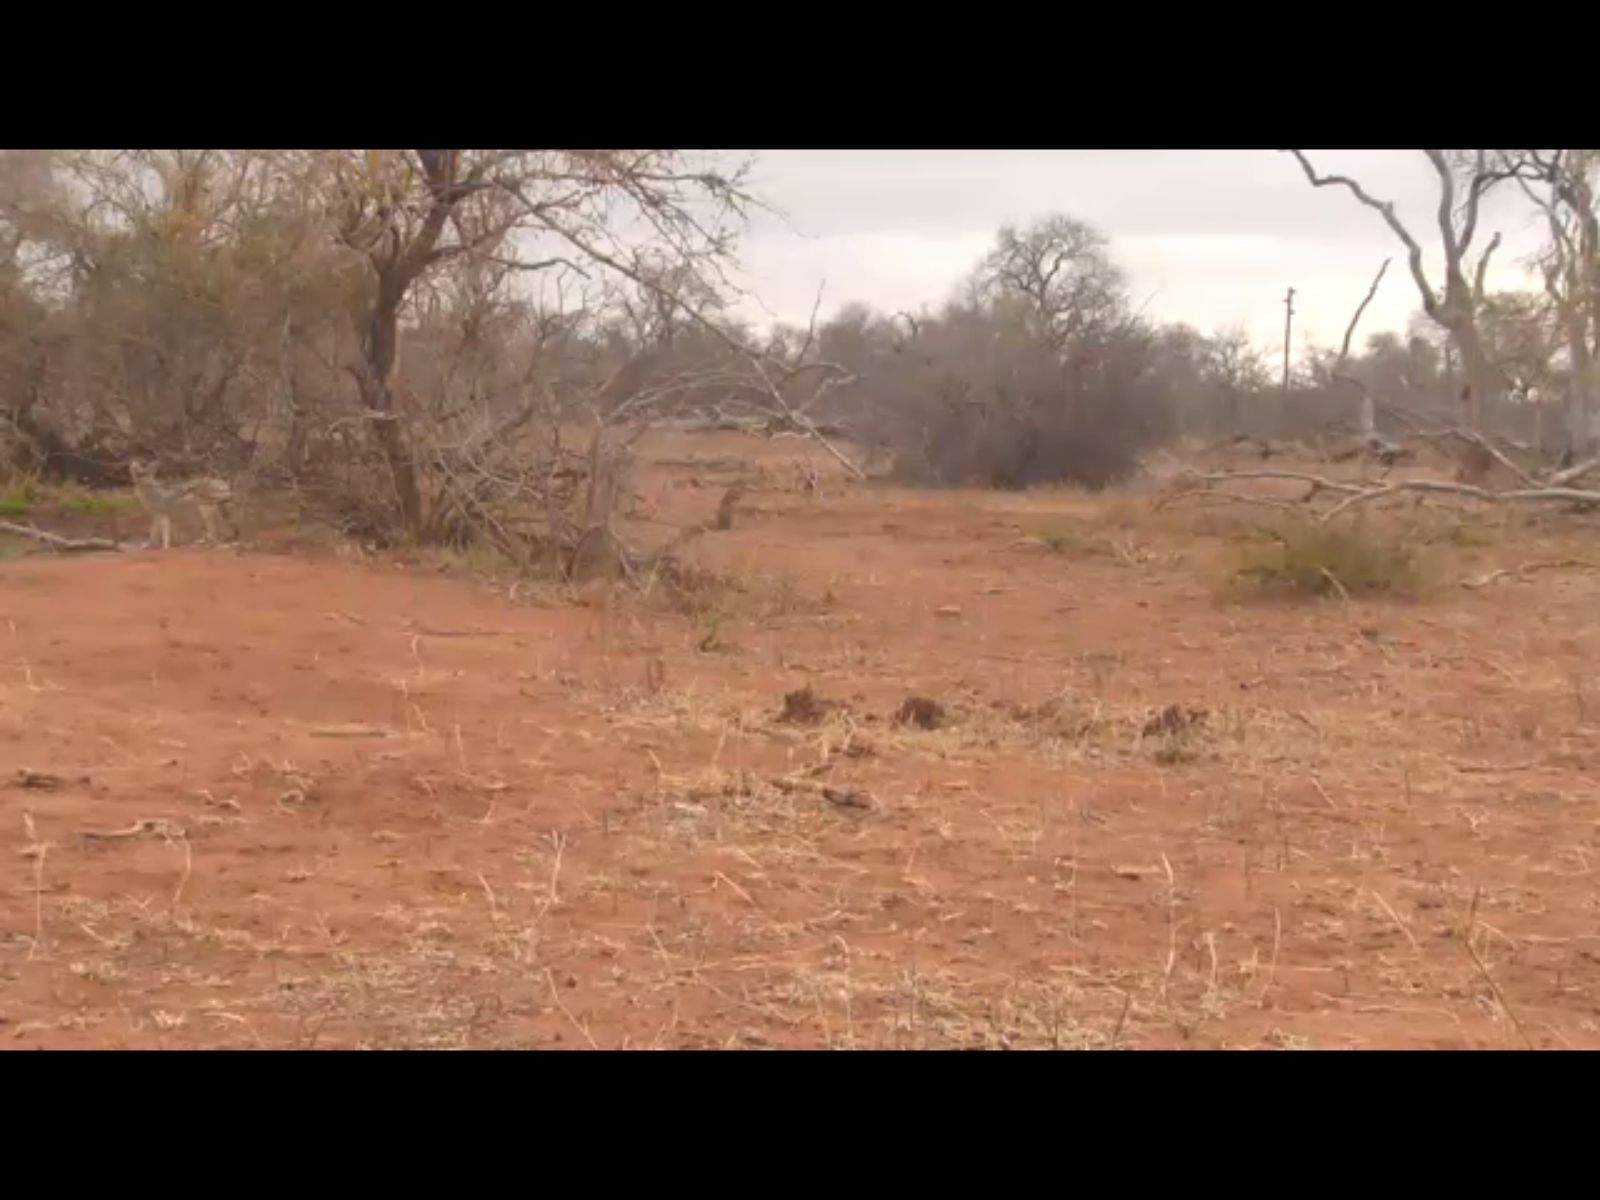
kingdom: Animalia
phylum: Chordata
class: Mammalia
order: Carnivora
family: Canidae
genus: Lupulella
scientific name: Lupulella
